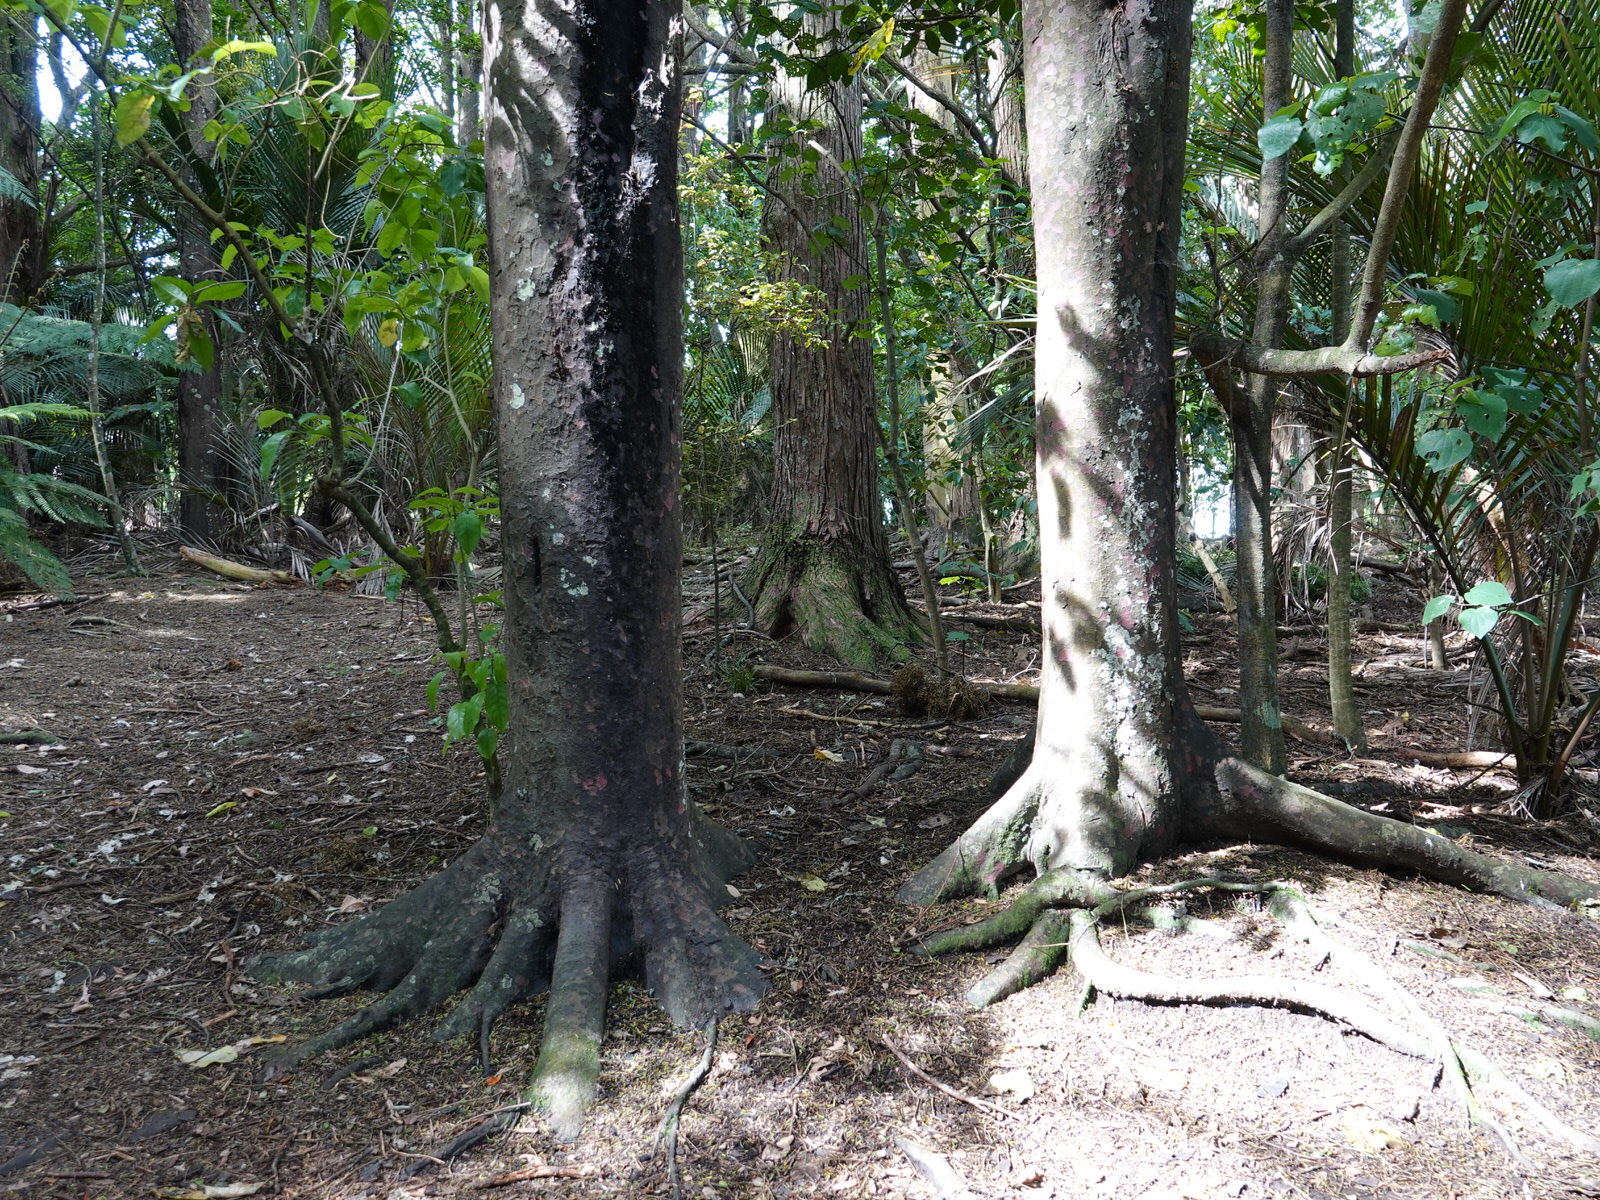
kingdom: Plantae
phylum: Tracheophyta
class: Pinopsida
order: Pinales
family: Podocarpaceae
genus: Prumnopitys
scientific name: Prumnopitys taxifolia
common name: Matai
